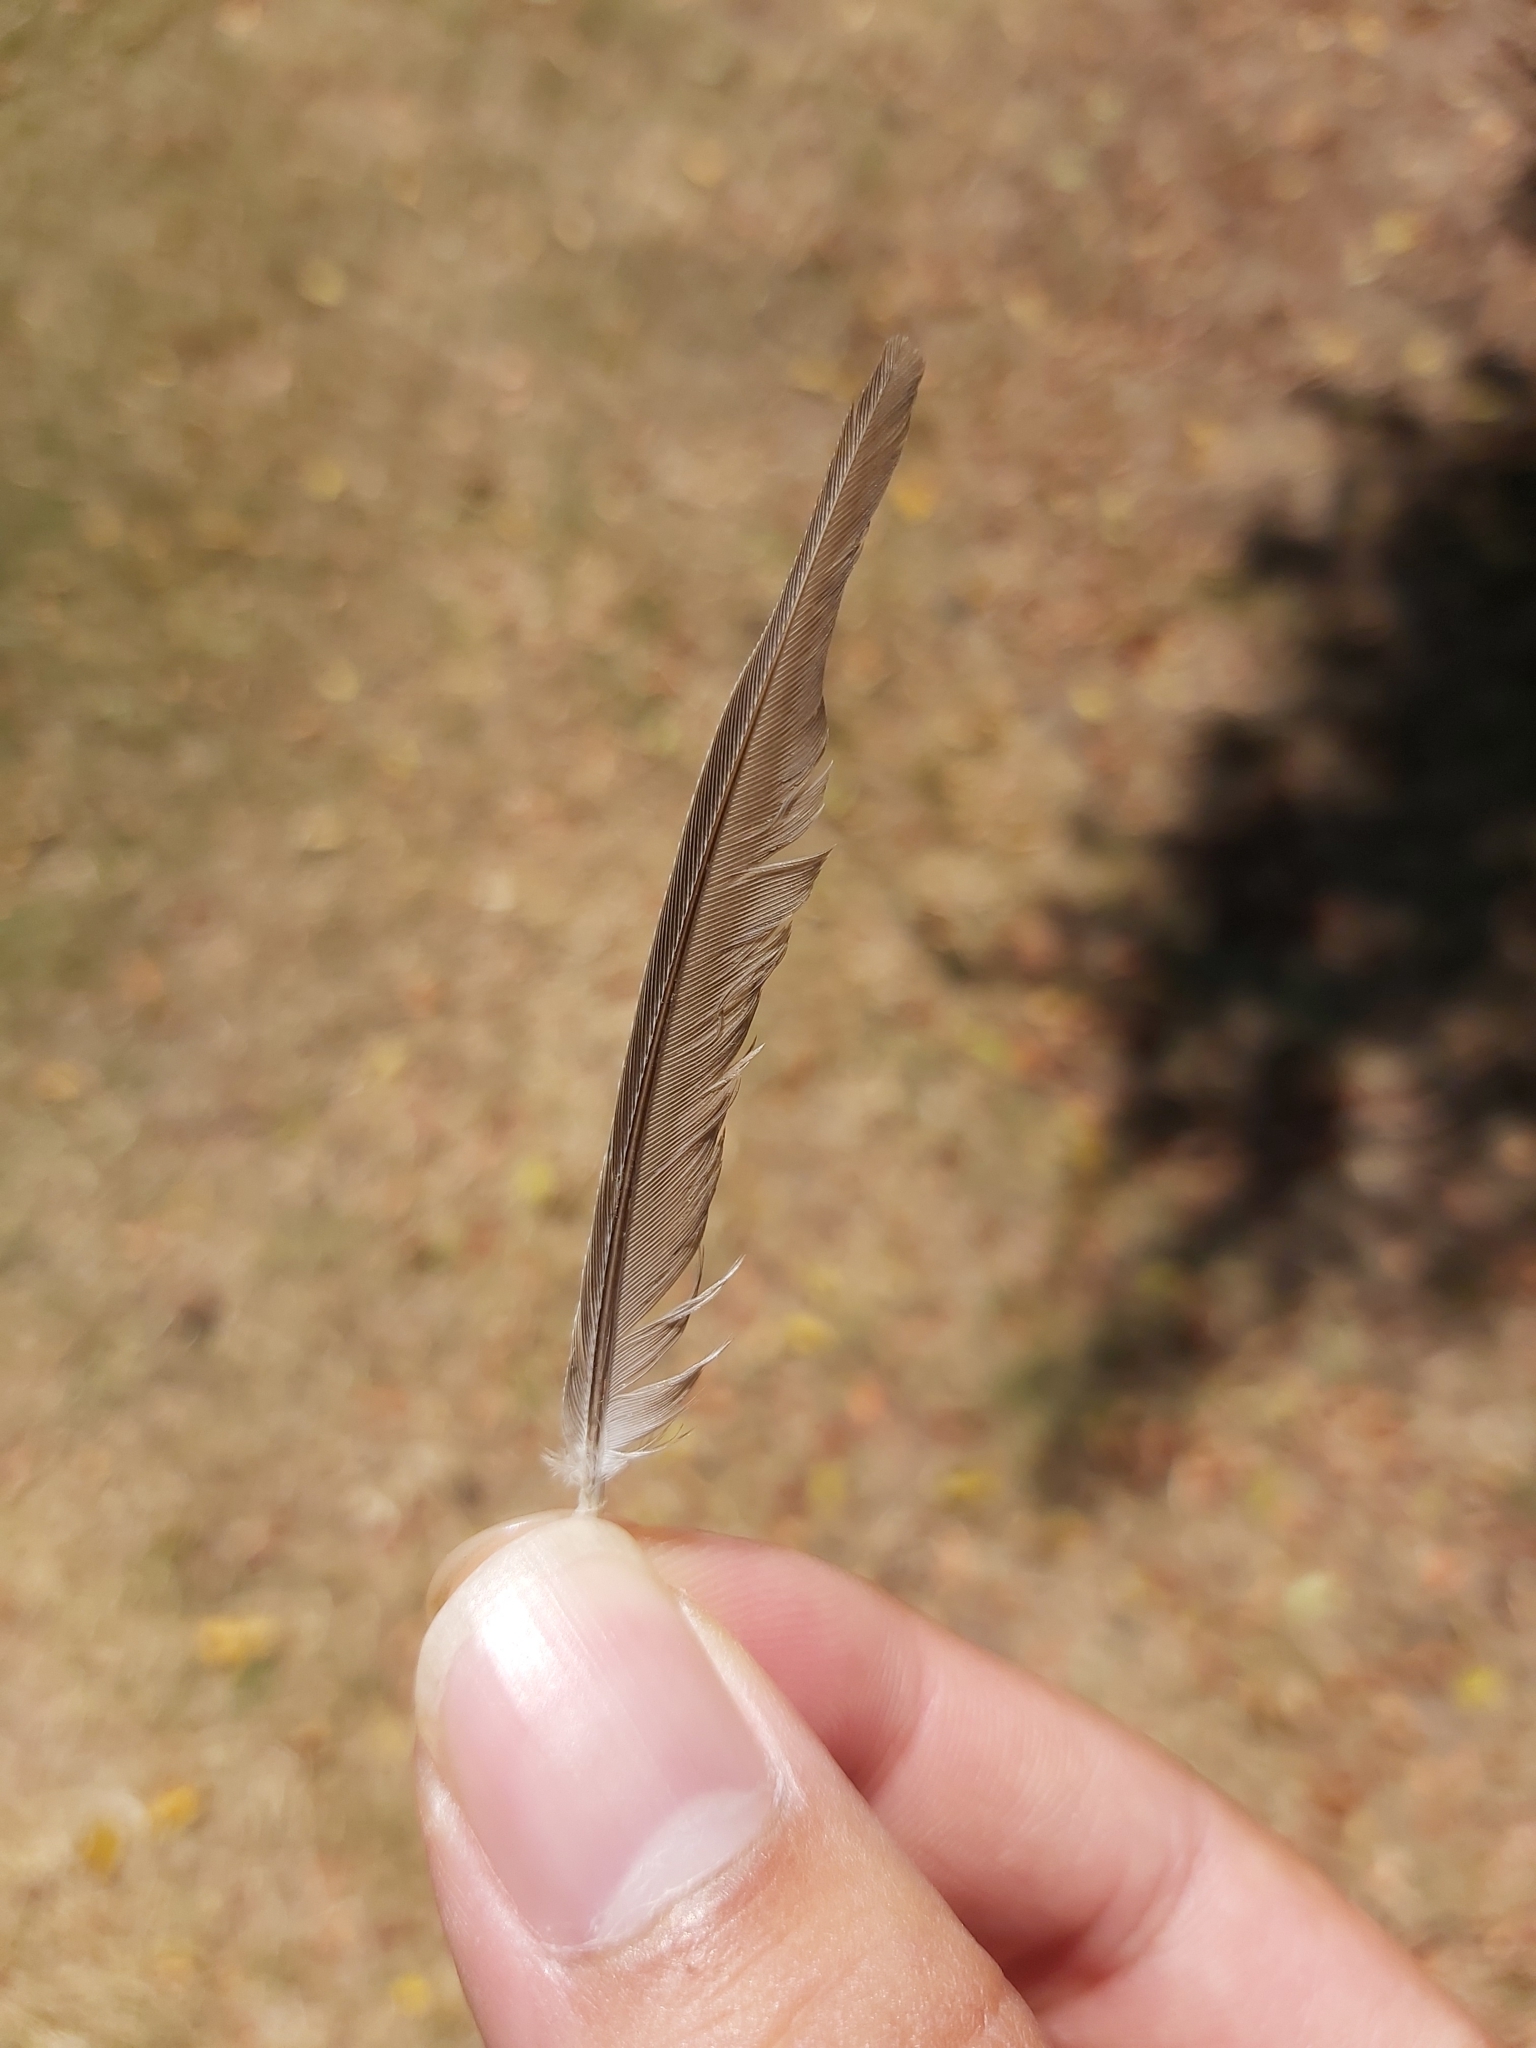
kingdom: Animalia
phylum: Chordata
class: Aves
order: Columbiformes
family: Columbidae
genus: Geopelia
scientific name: Geopelia placida
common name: Peaceful dove
